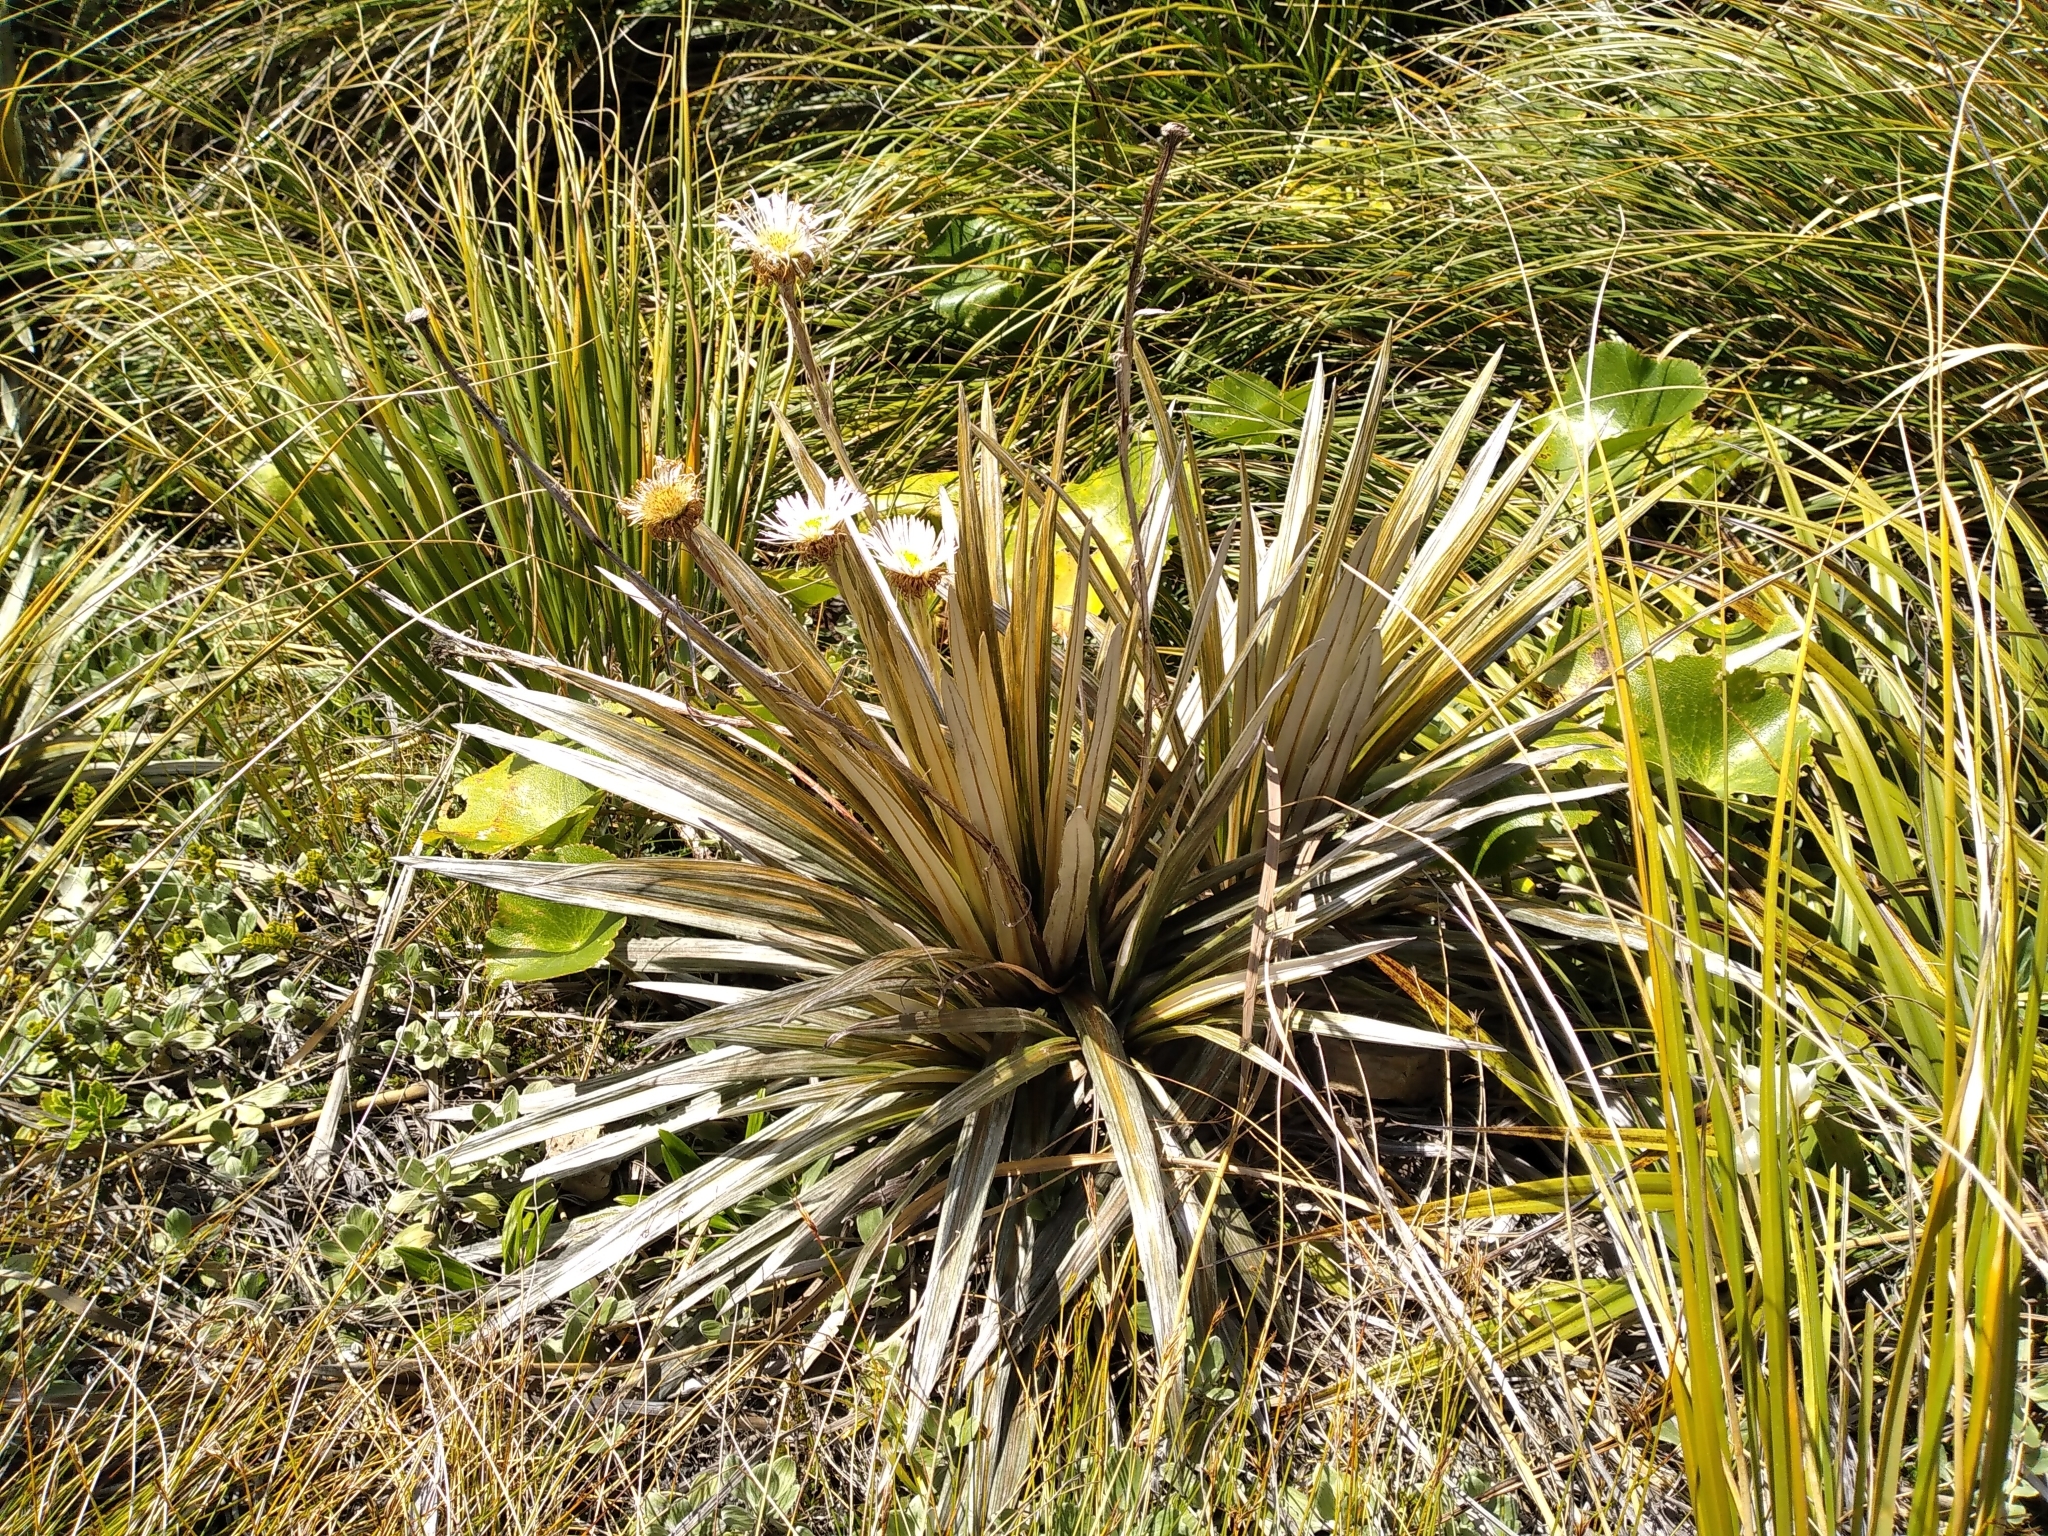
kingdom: Plantae
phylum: Tracheophyta
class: Magnoliopsida
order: Asterales
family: Asteraceae
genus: Celmisia
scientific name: Celmisia armstrongii
